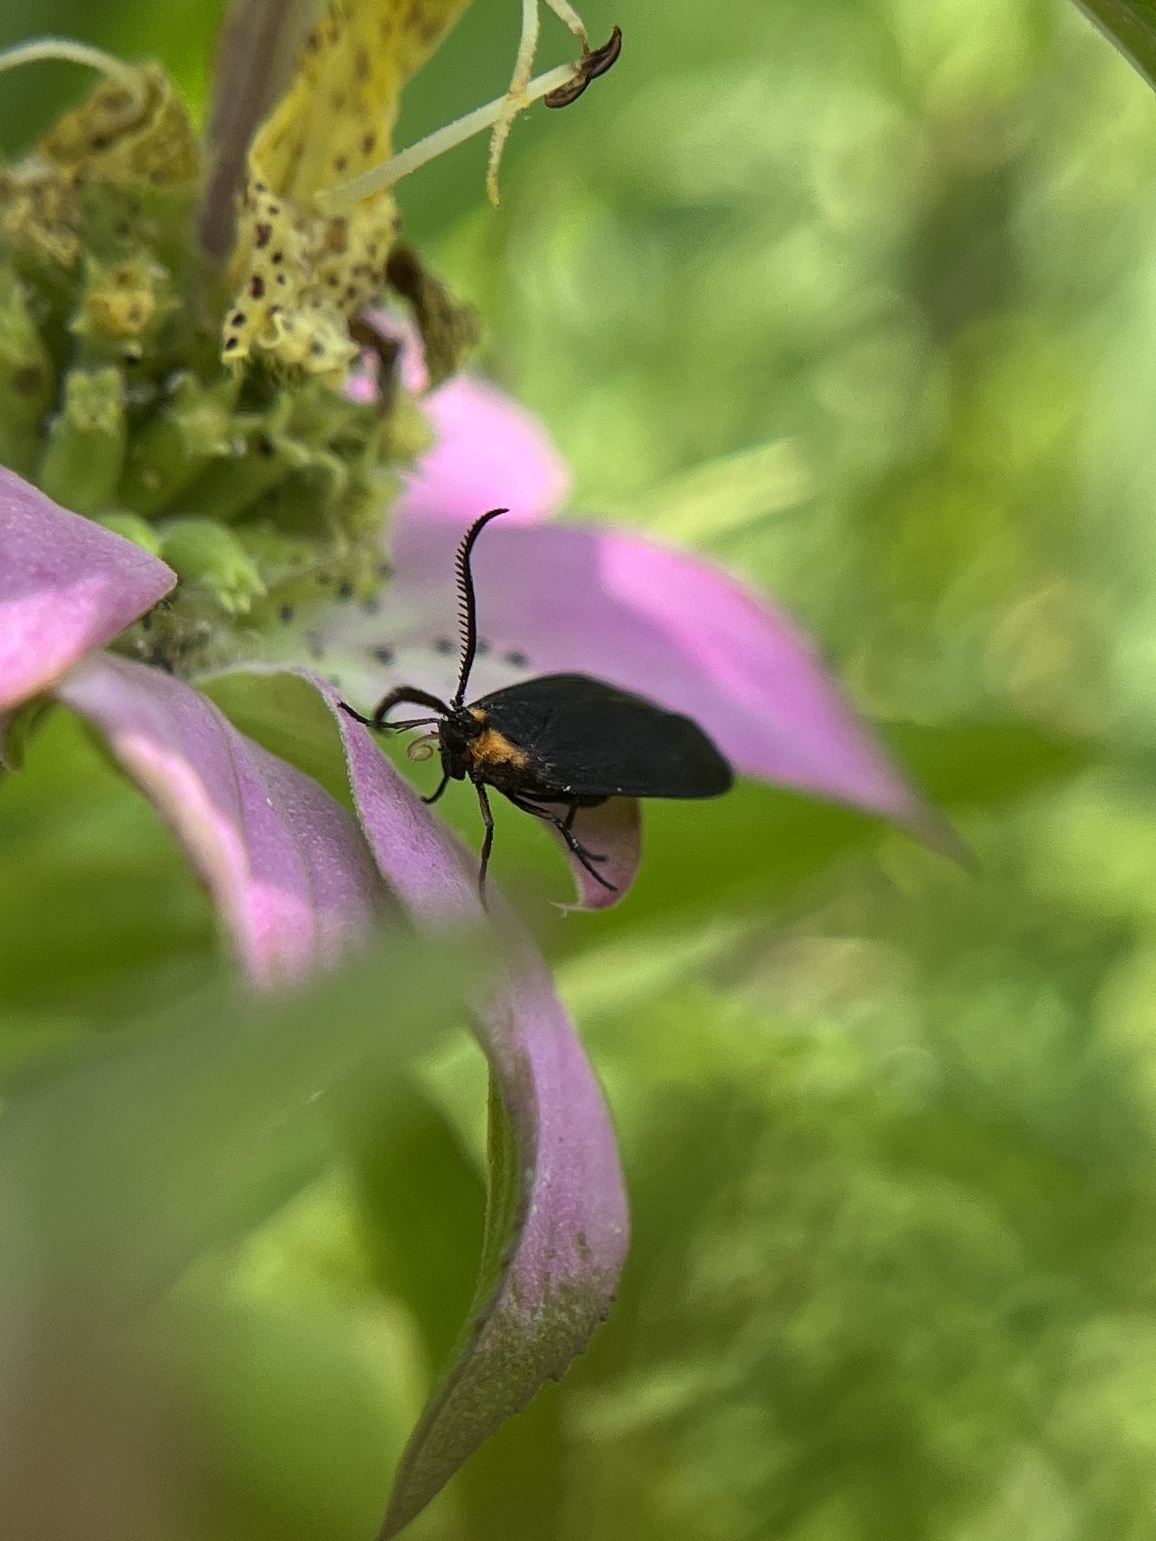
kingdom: Animalia
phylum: Arthropoda
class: Insecta
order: Lepidoptera
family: Zygaenidae
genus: Acoloithus
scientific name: Acoloithus falsarius
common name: Clemens' false skeletonizer
